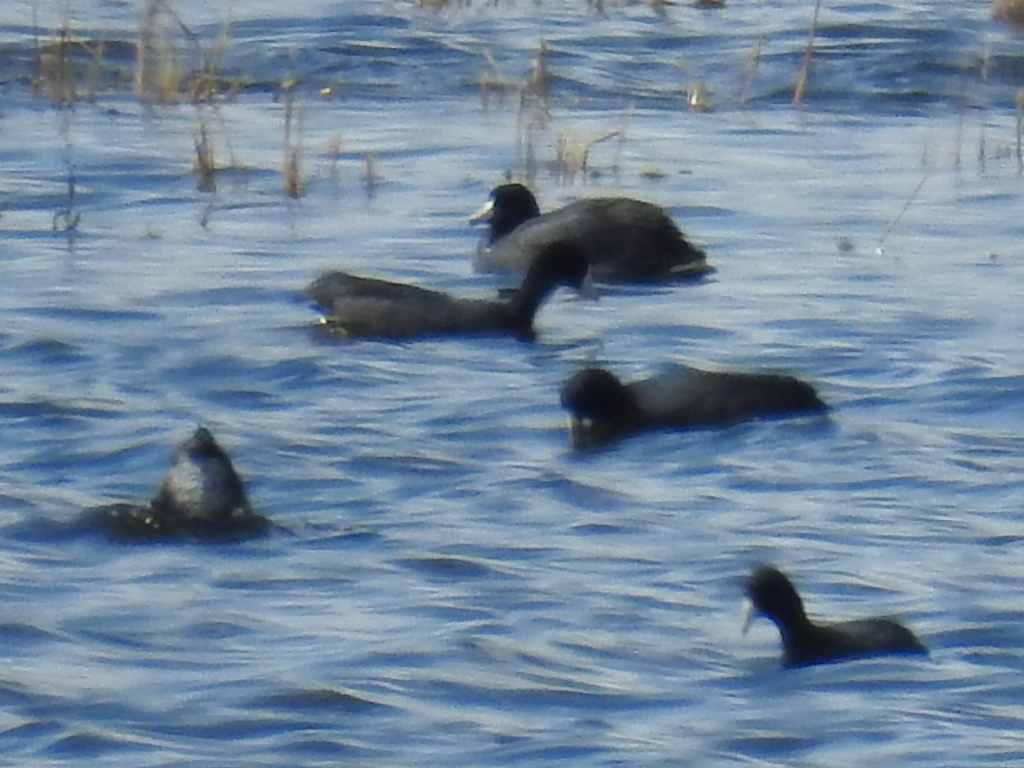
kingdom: Animalia
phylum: Chordata
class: Aves
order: Gruiformes
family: Rallidae
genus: Fulica
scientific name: Fulica americana
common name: American coot
